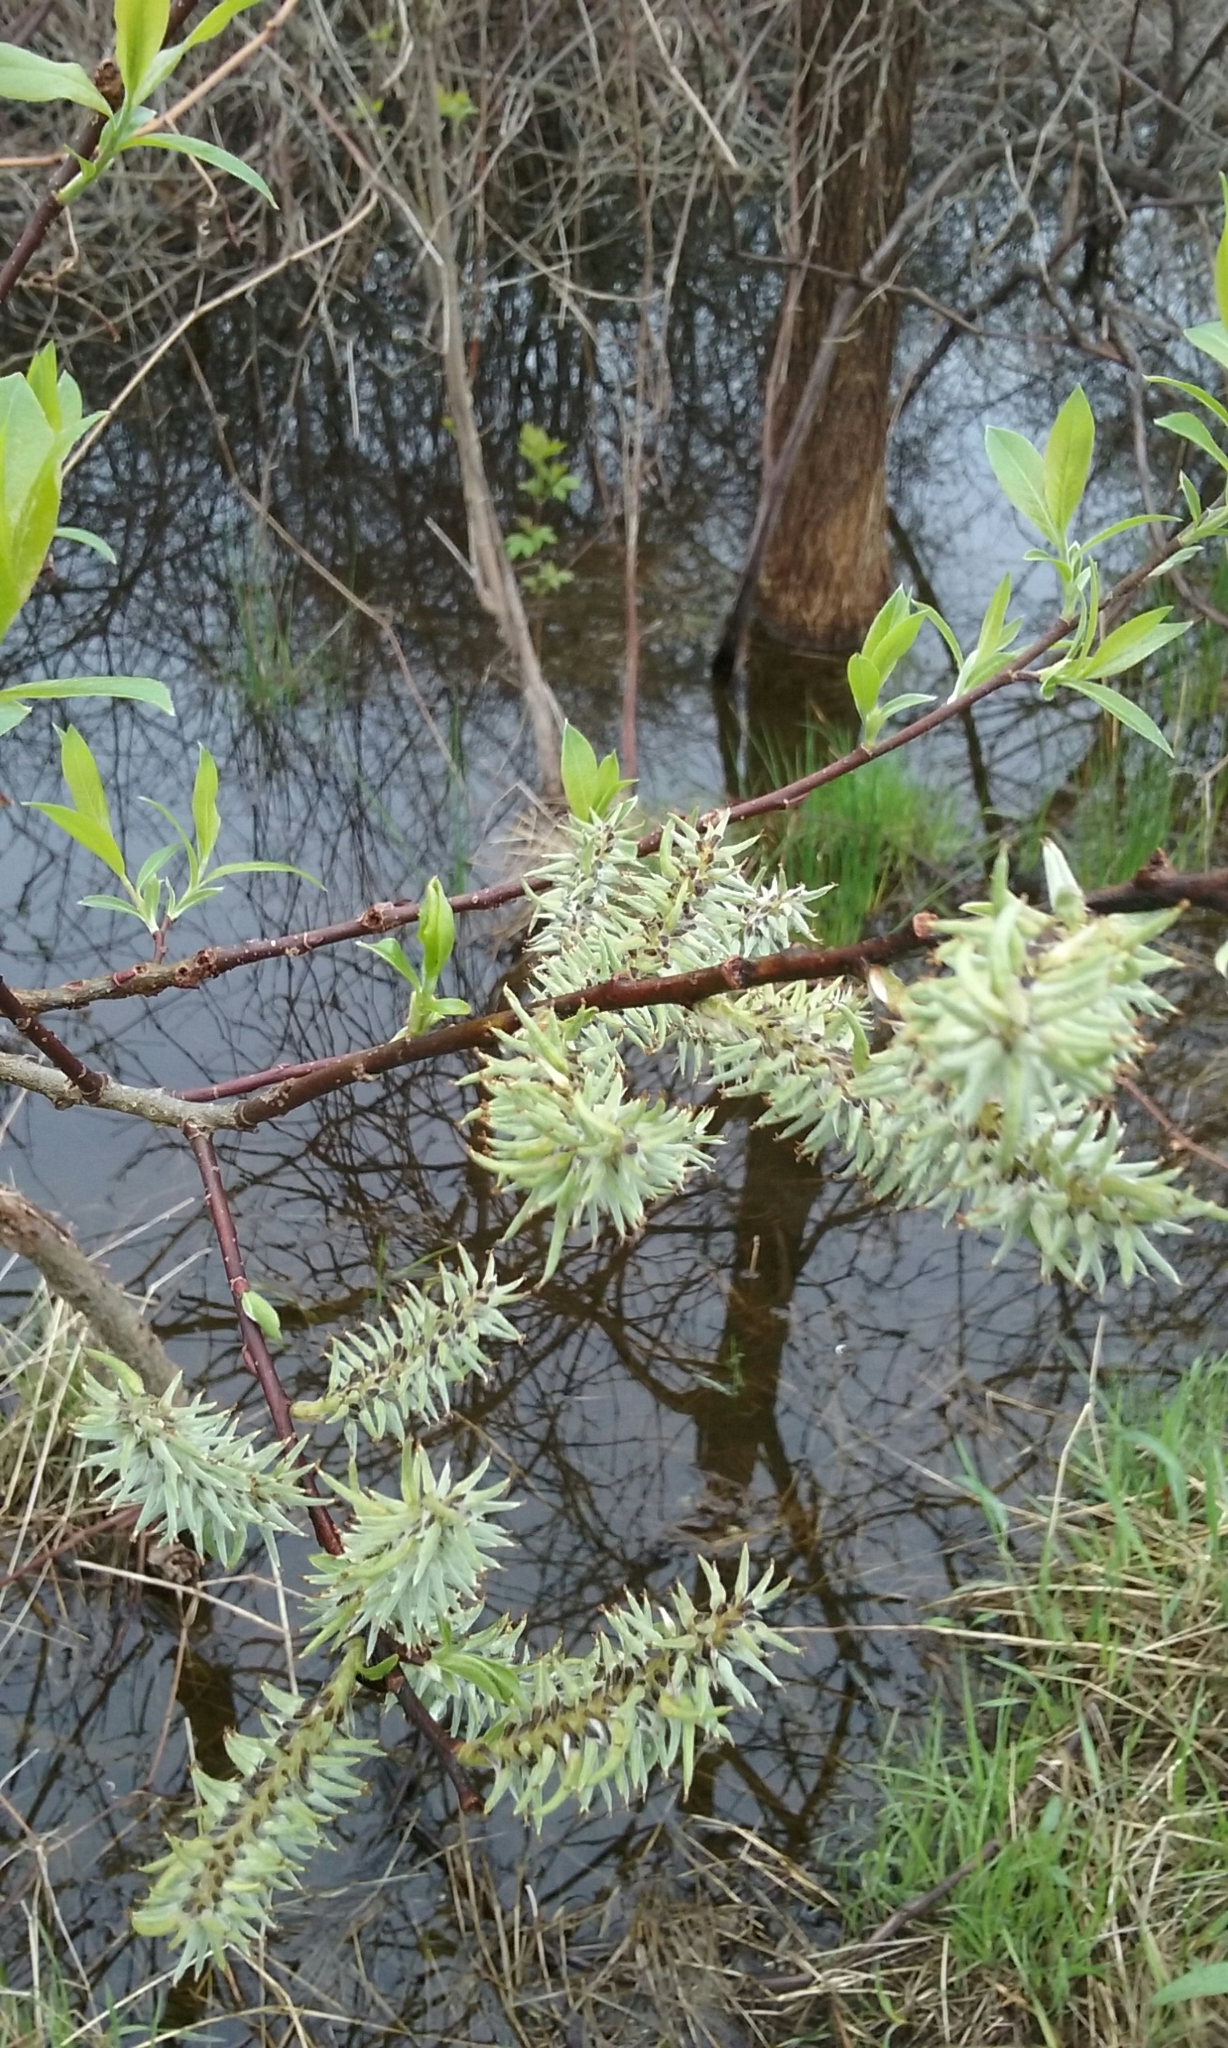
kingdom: Plantae
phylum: Tracheophyta
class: Magnoliopsida
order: Malpighiales
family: Salicaceae
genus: Salix
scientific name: Salix
